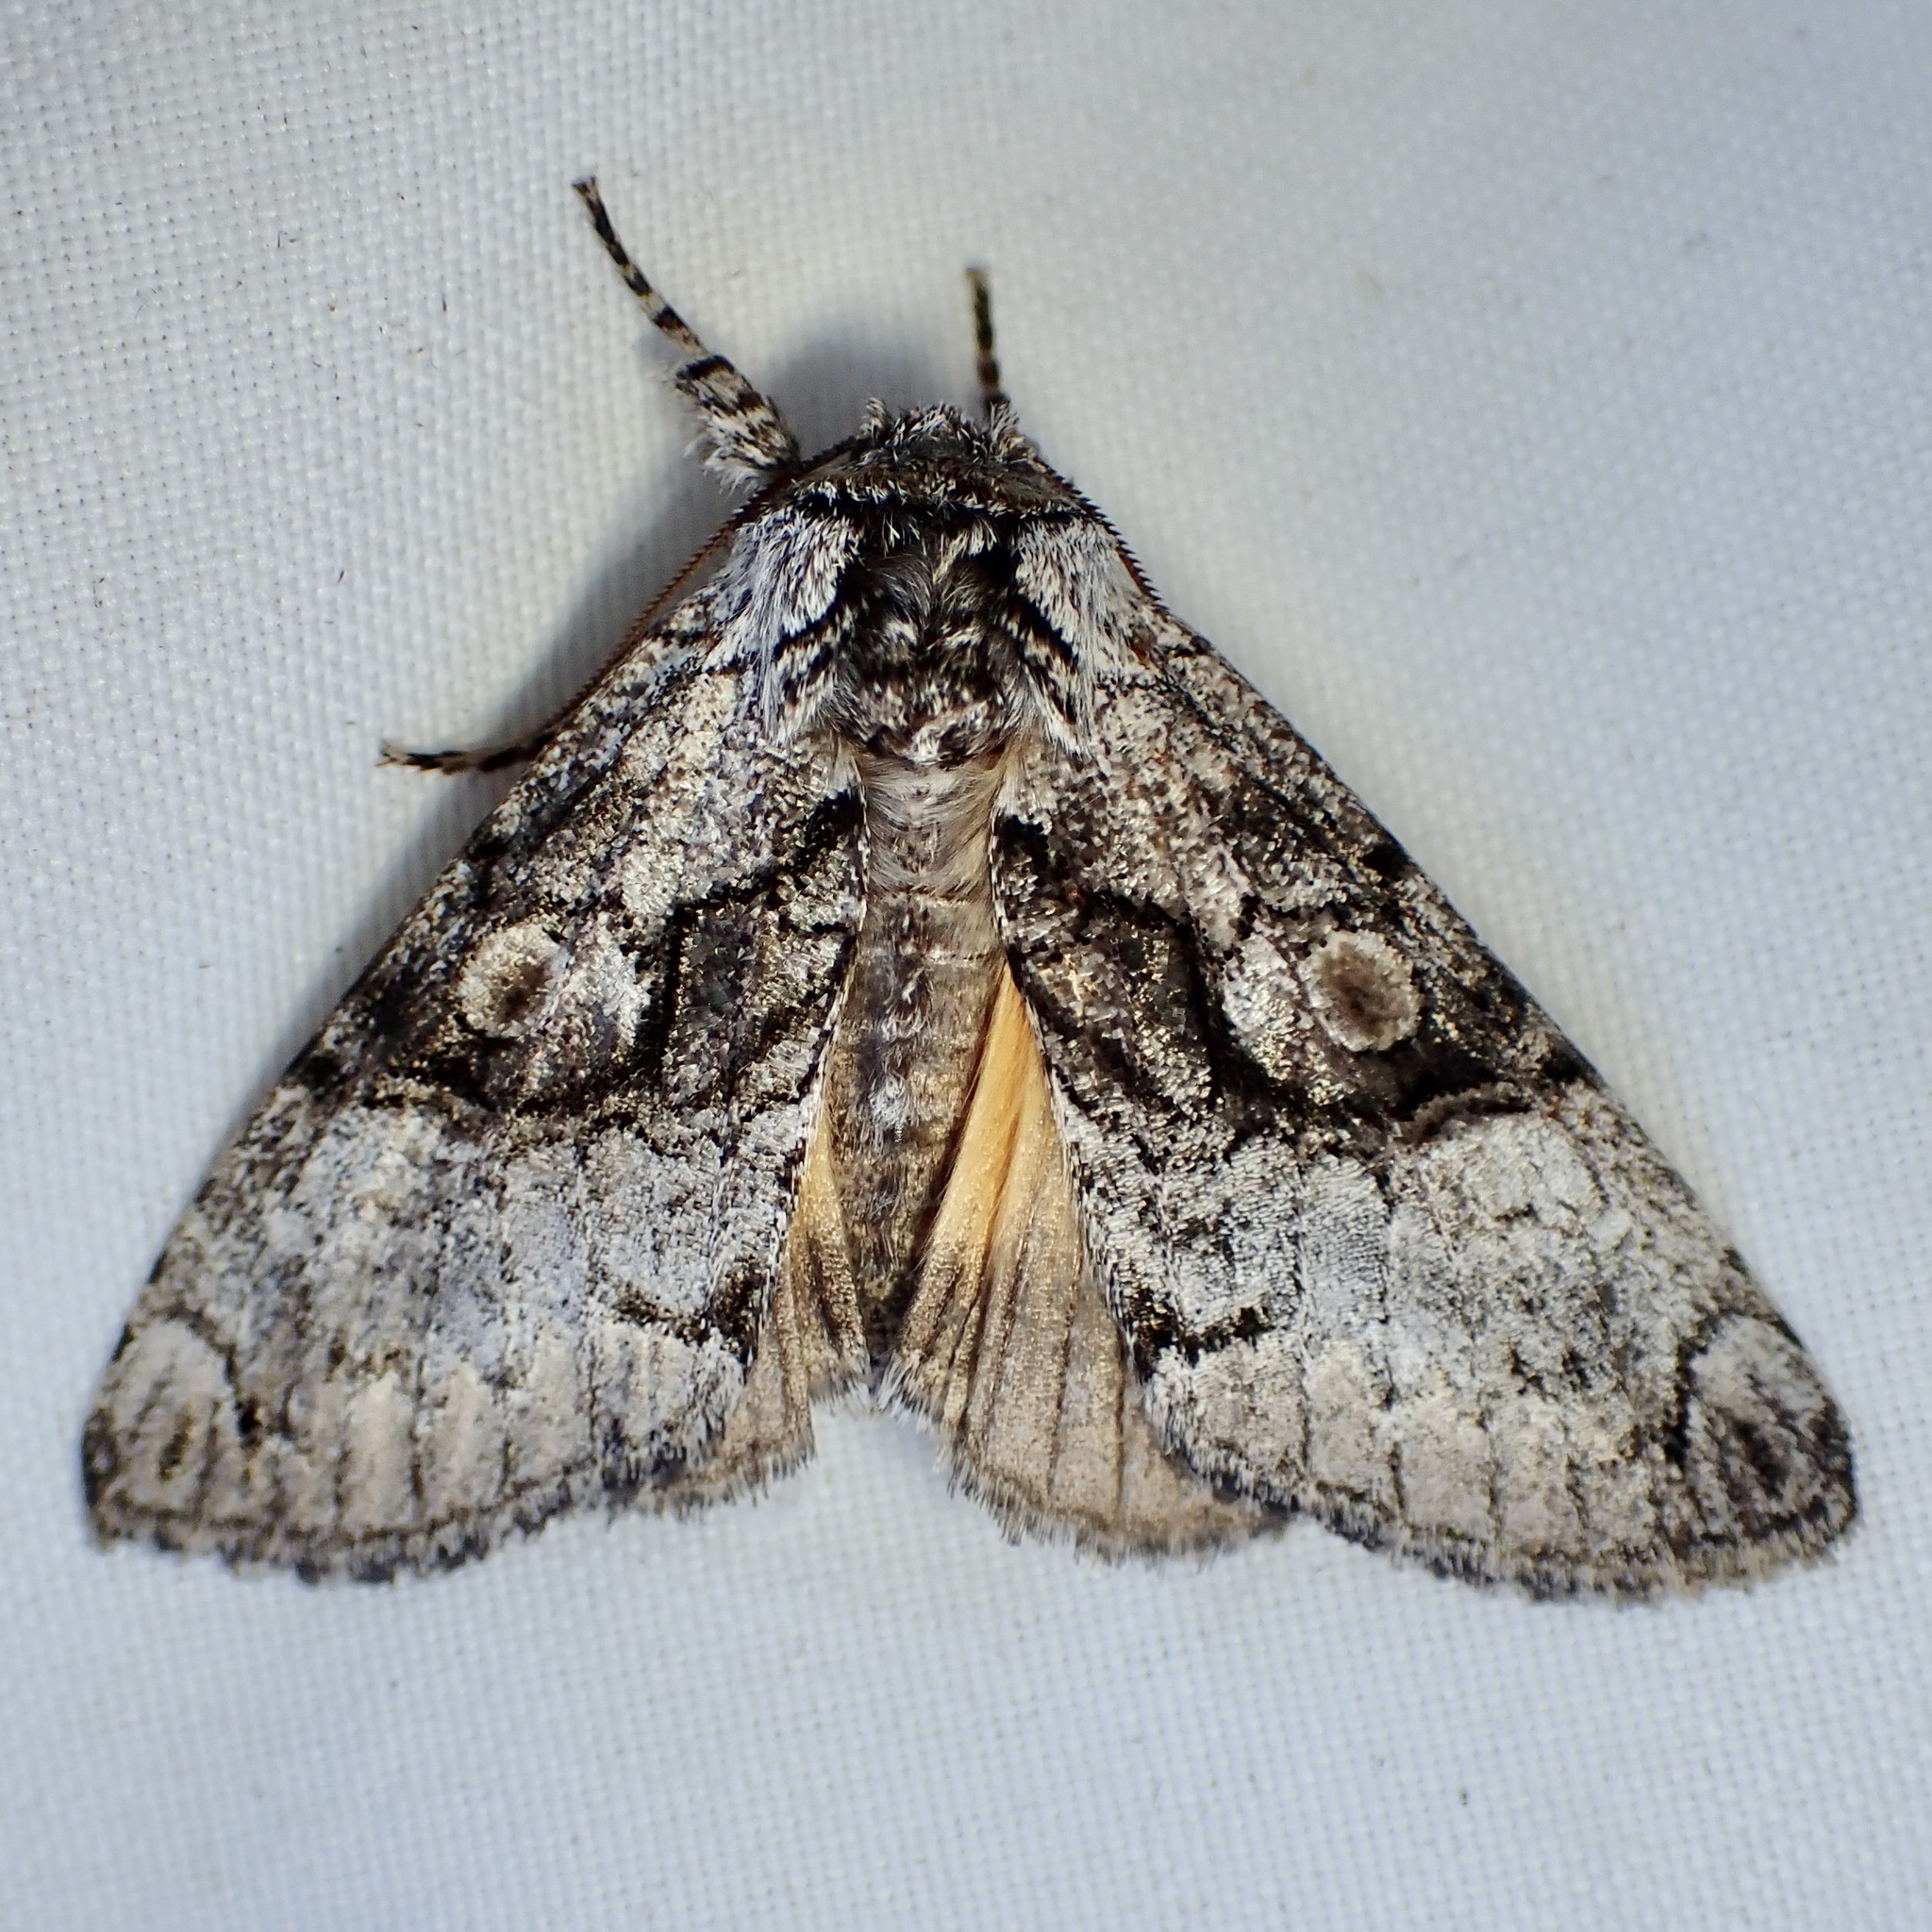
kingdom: Animalia
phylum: Arthropoda
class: Insecta
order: Lepidoptera
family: Noctuidae
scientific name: Noctuidae
